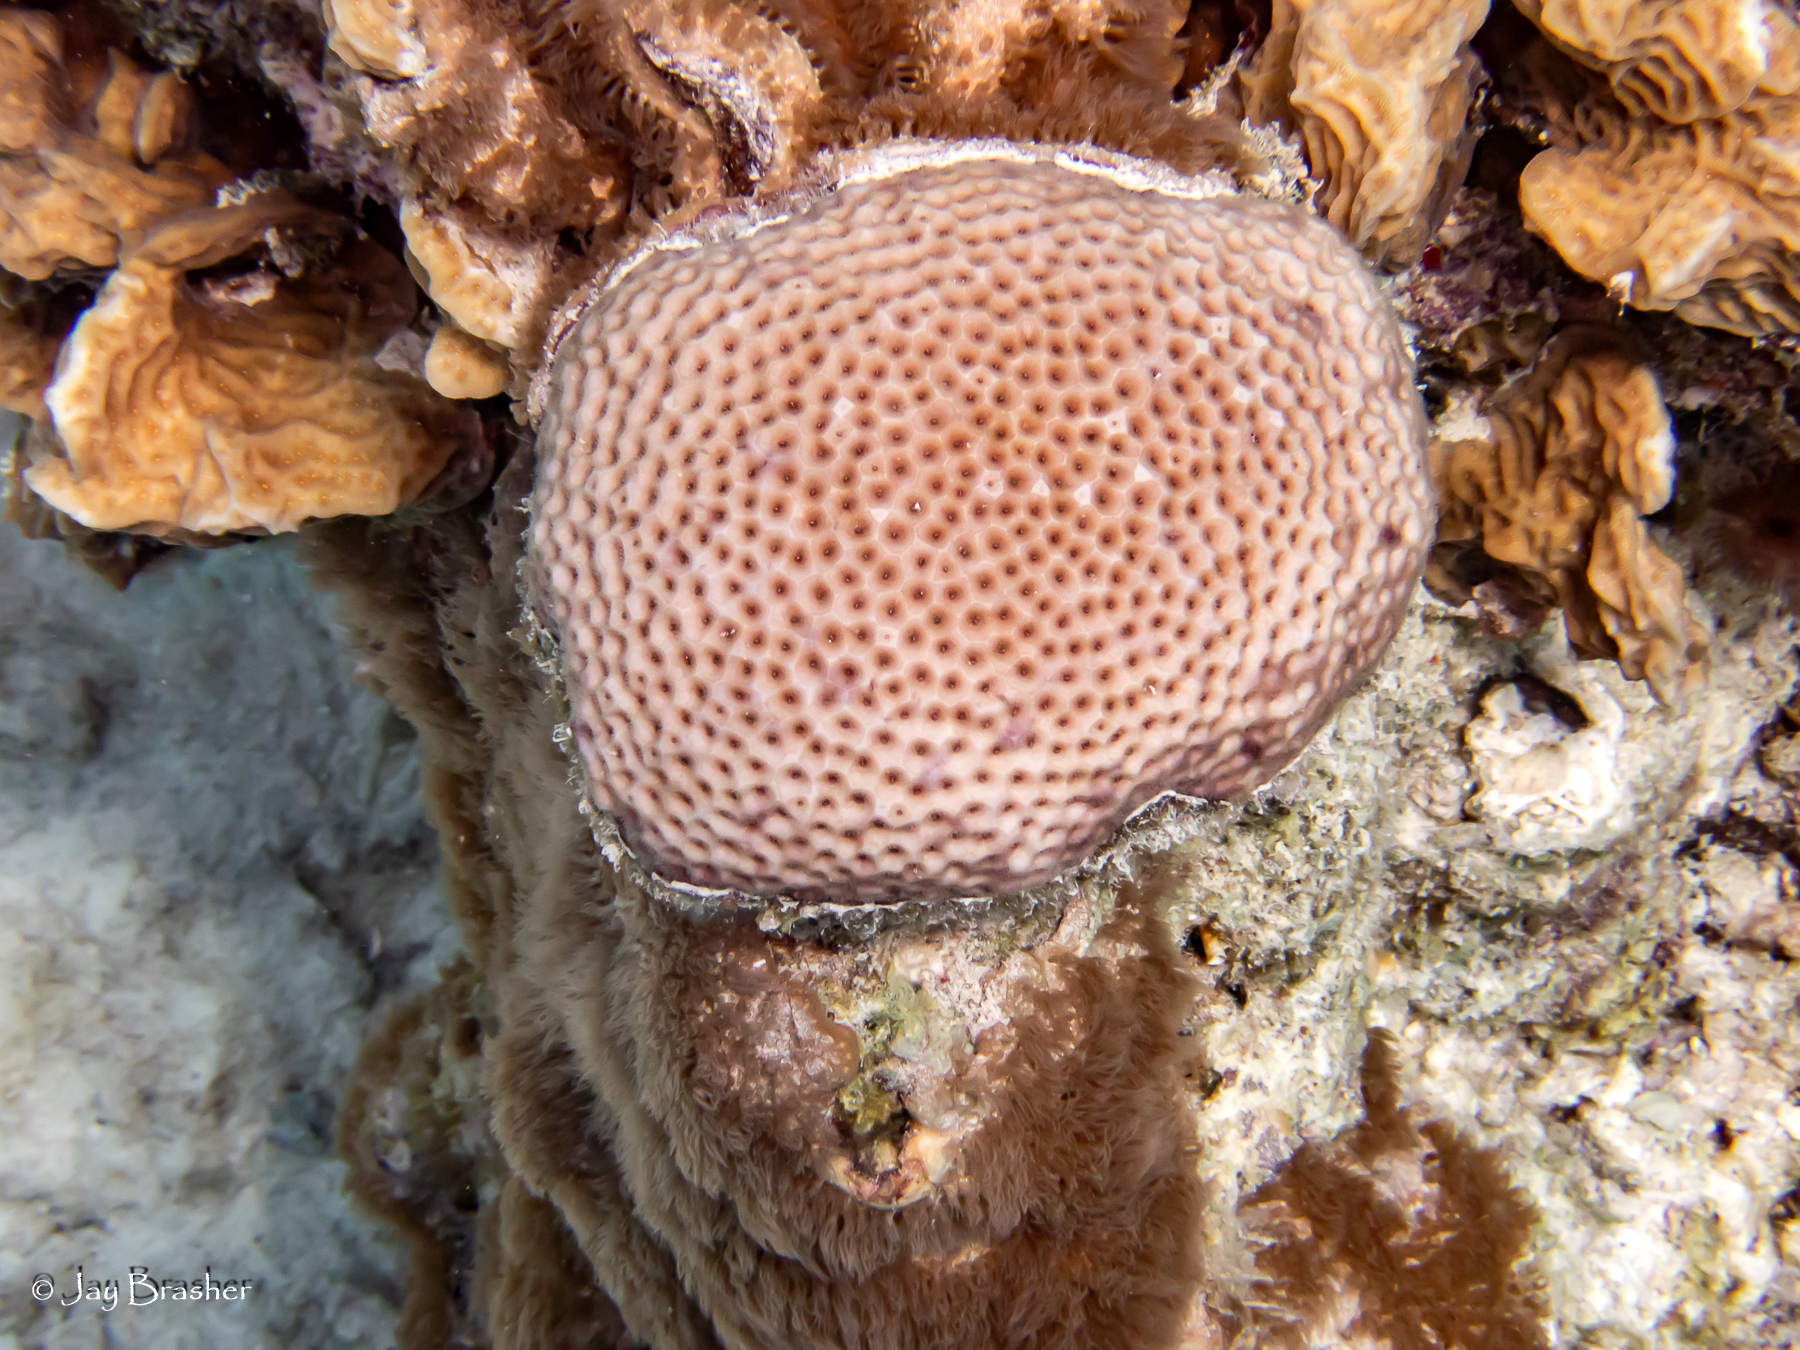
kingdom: Animalia
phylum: Cnidaria
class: Anthozoa
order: Scleractinia
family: Agariciidae
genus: Agaricia
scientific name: Agaricia agaricites
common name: Lettuce coral
